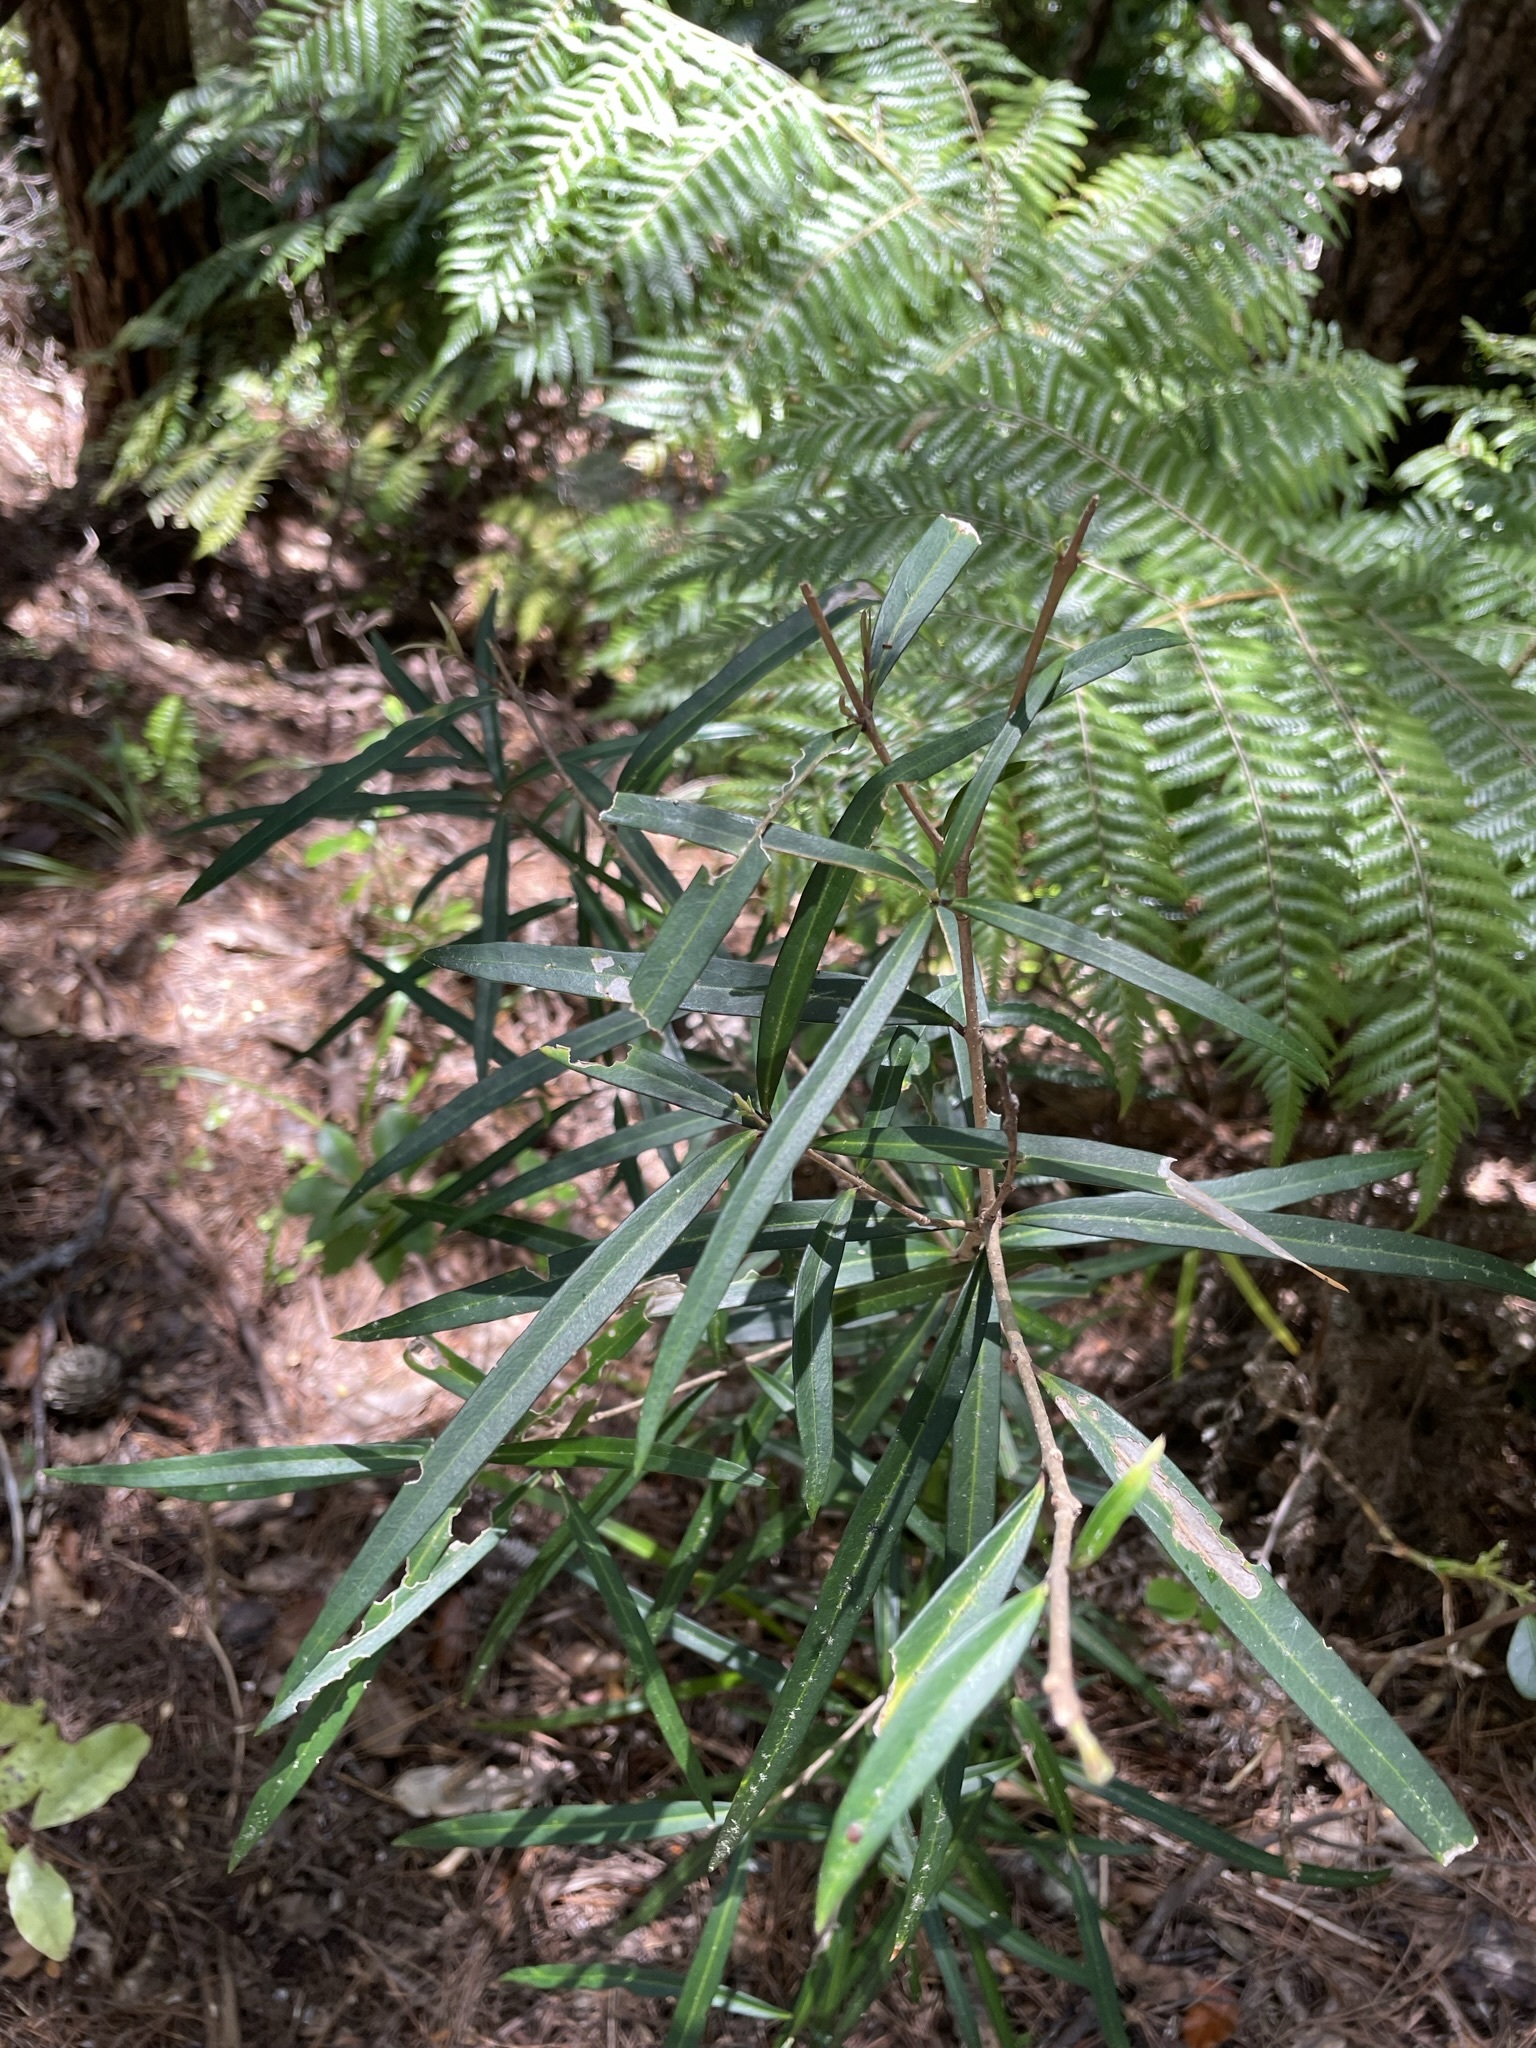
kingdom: Plantae
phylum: Tracheophyta
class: Magnoliopsida
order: Lamiales
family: Oleaceae
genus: Nestegis
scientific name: Nestegis lanceolata
